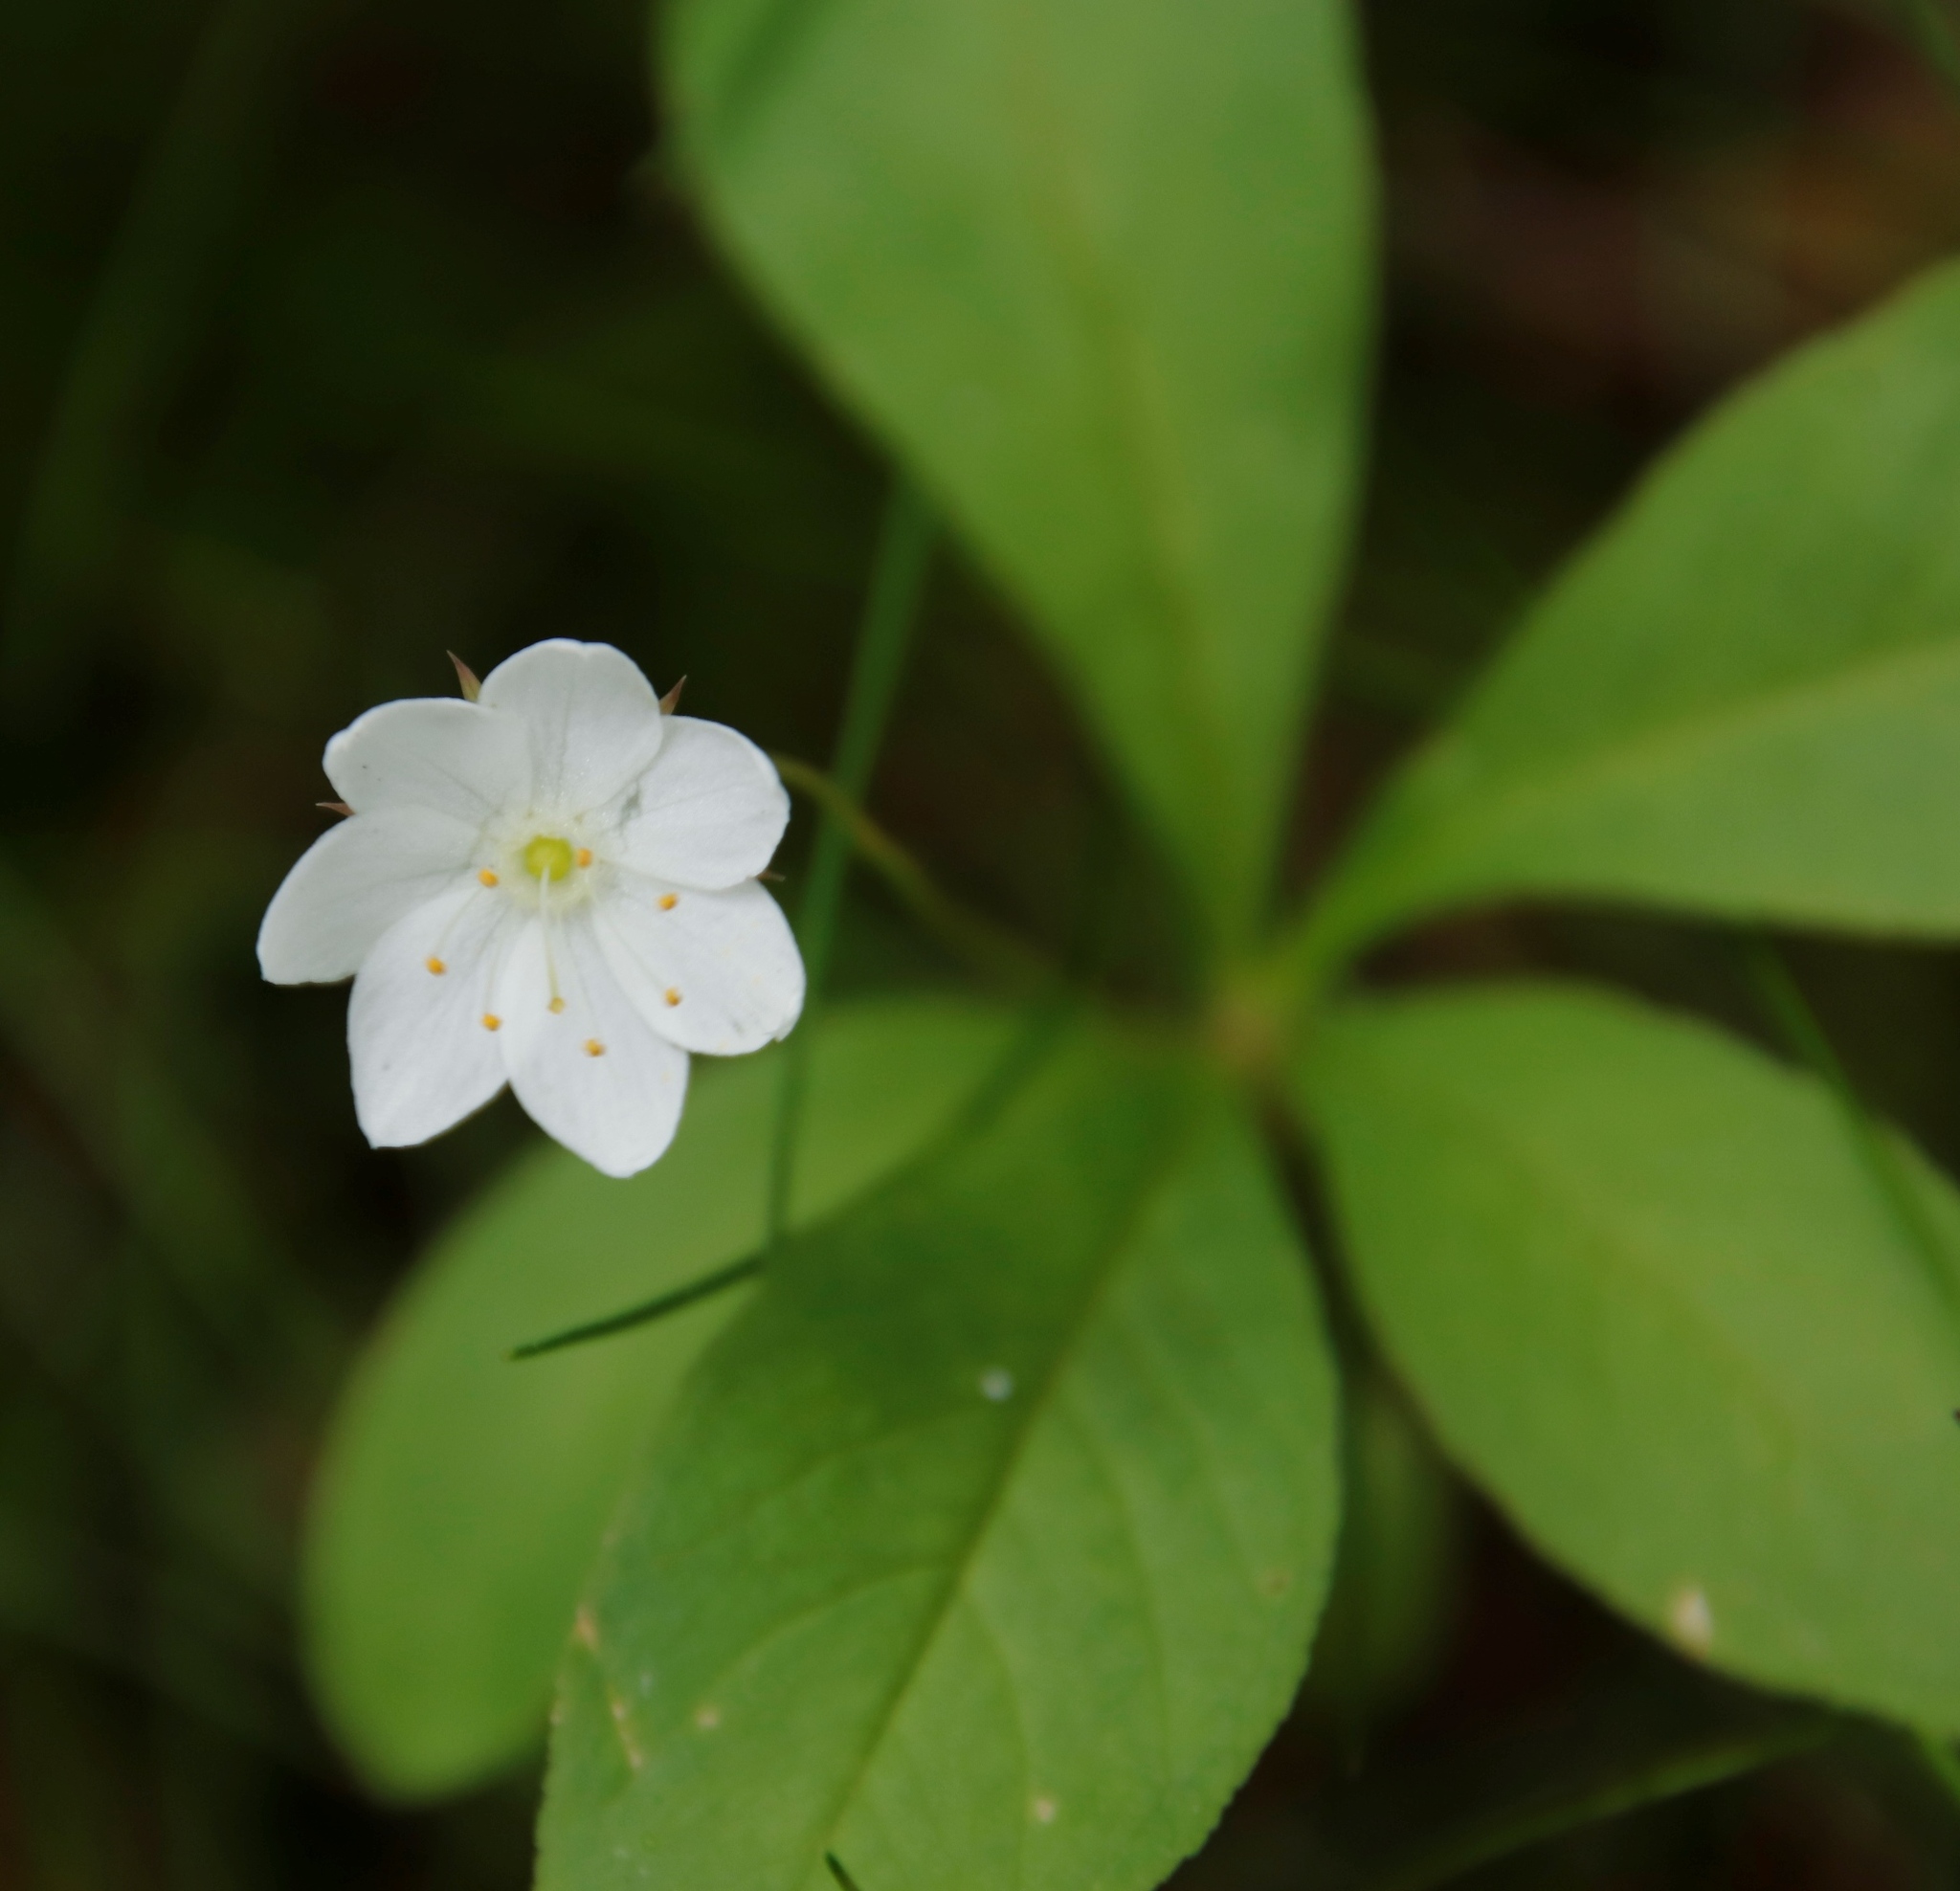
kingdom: Plantae
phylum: Tracheophyta
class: Magnoliopsida
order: Ericales
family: Primulaceae
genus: Lysimachia
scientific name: Lysimachia europaea
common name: Arctic starflower
